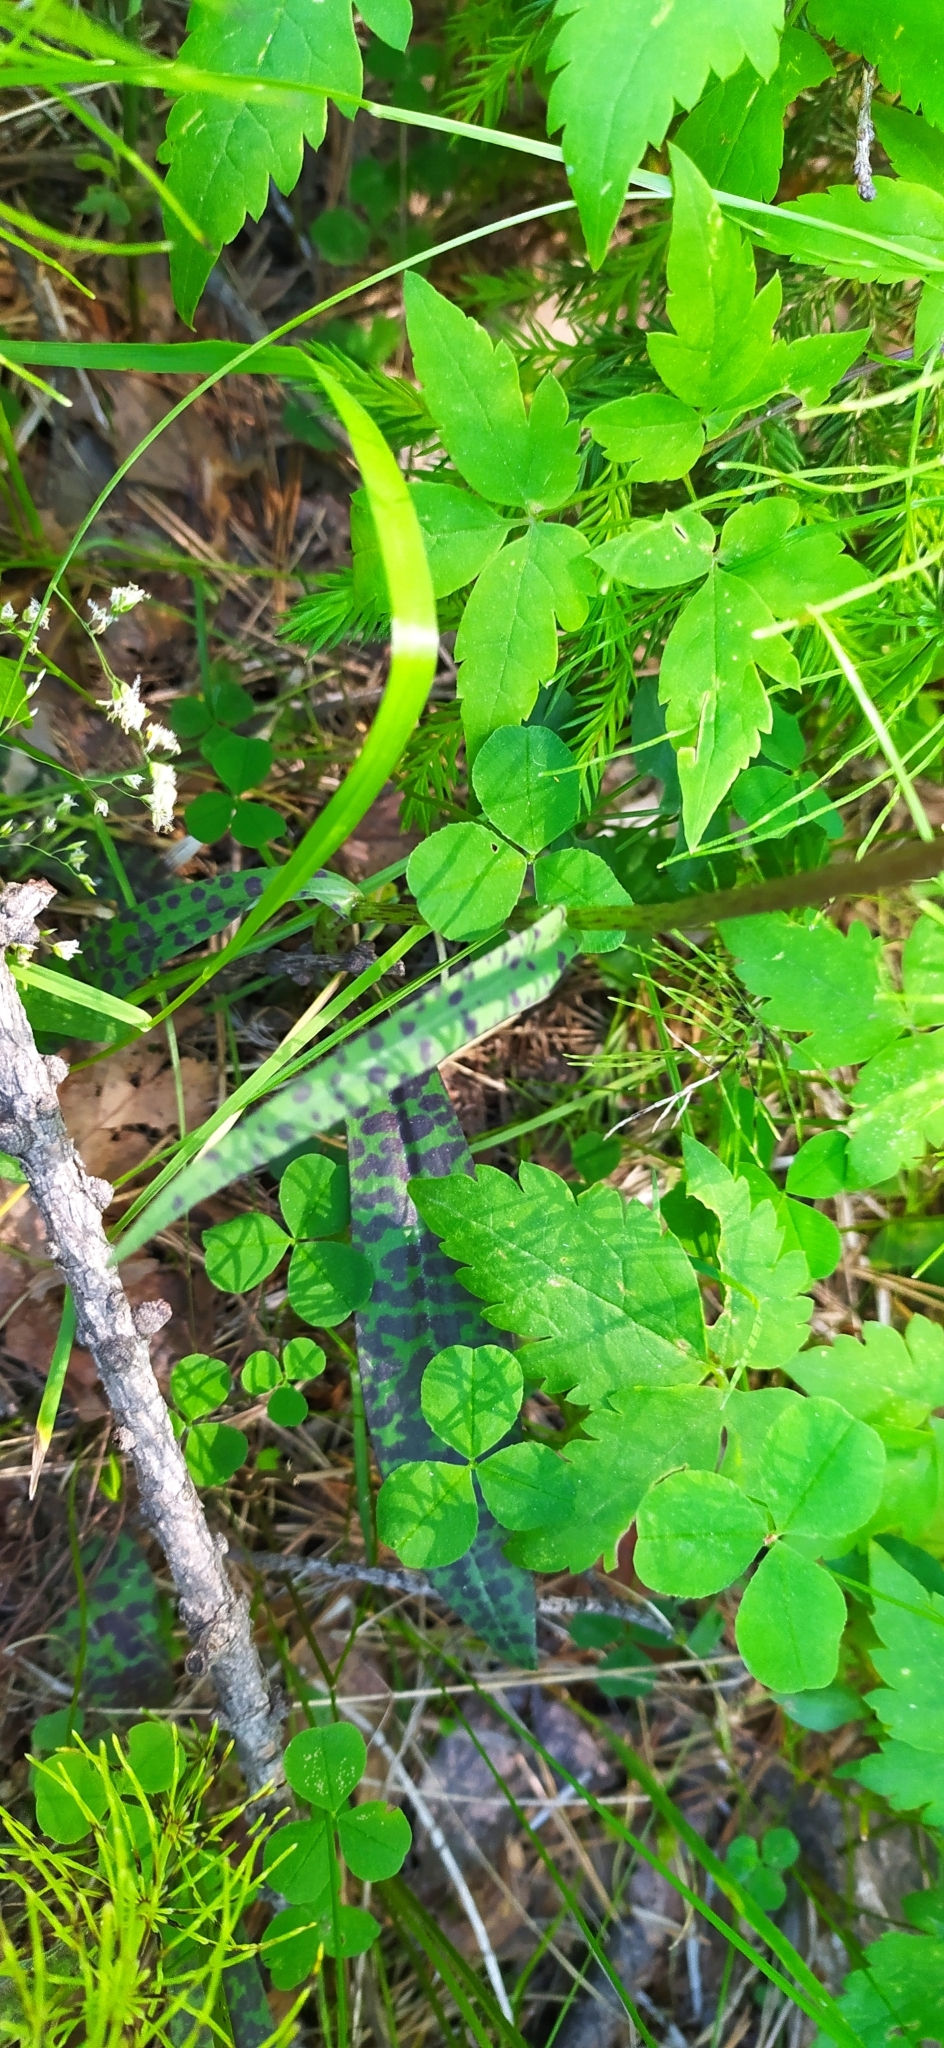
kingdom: Plantae
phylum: Tracheophyta
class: Liliopsida
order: Asparagales
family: Orchidaceae
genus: Dactylorhiza
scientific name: Dactylorhiza maculata
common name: Heath spotted-orchid
